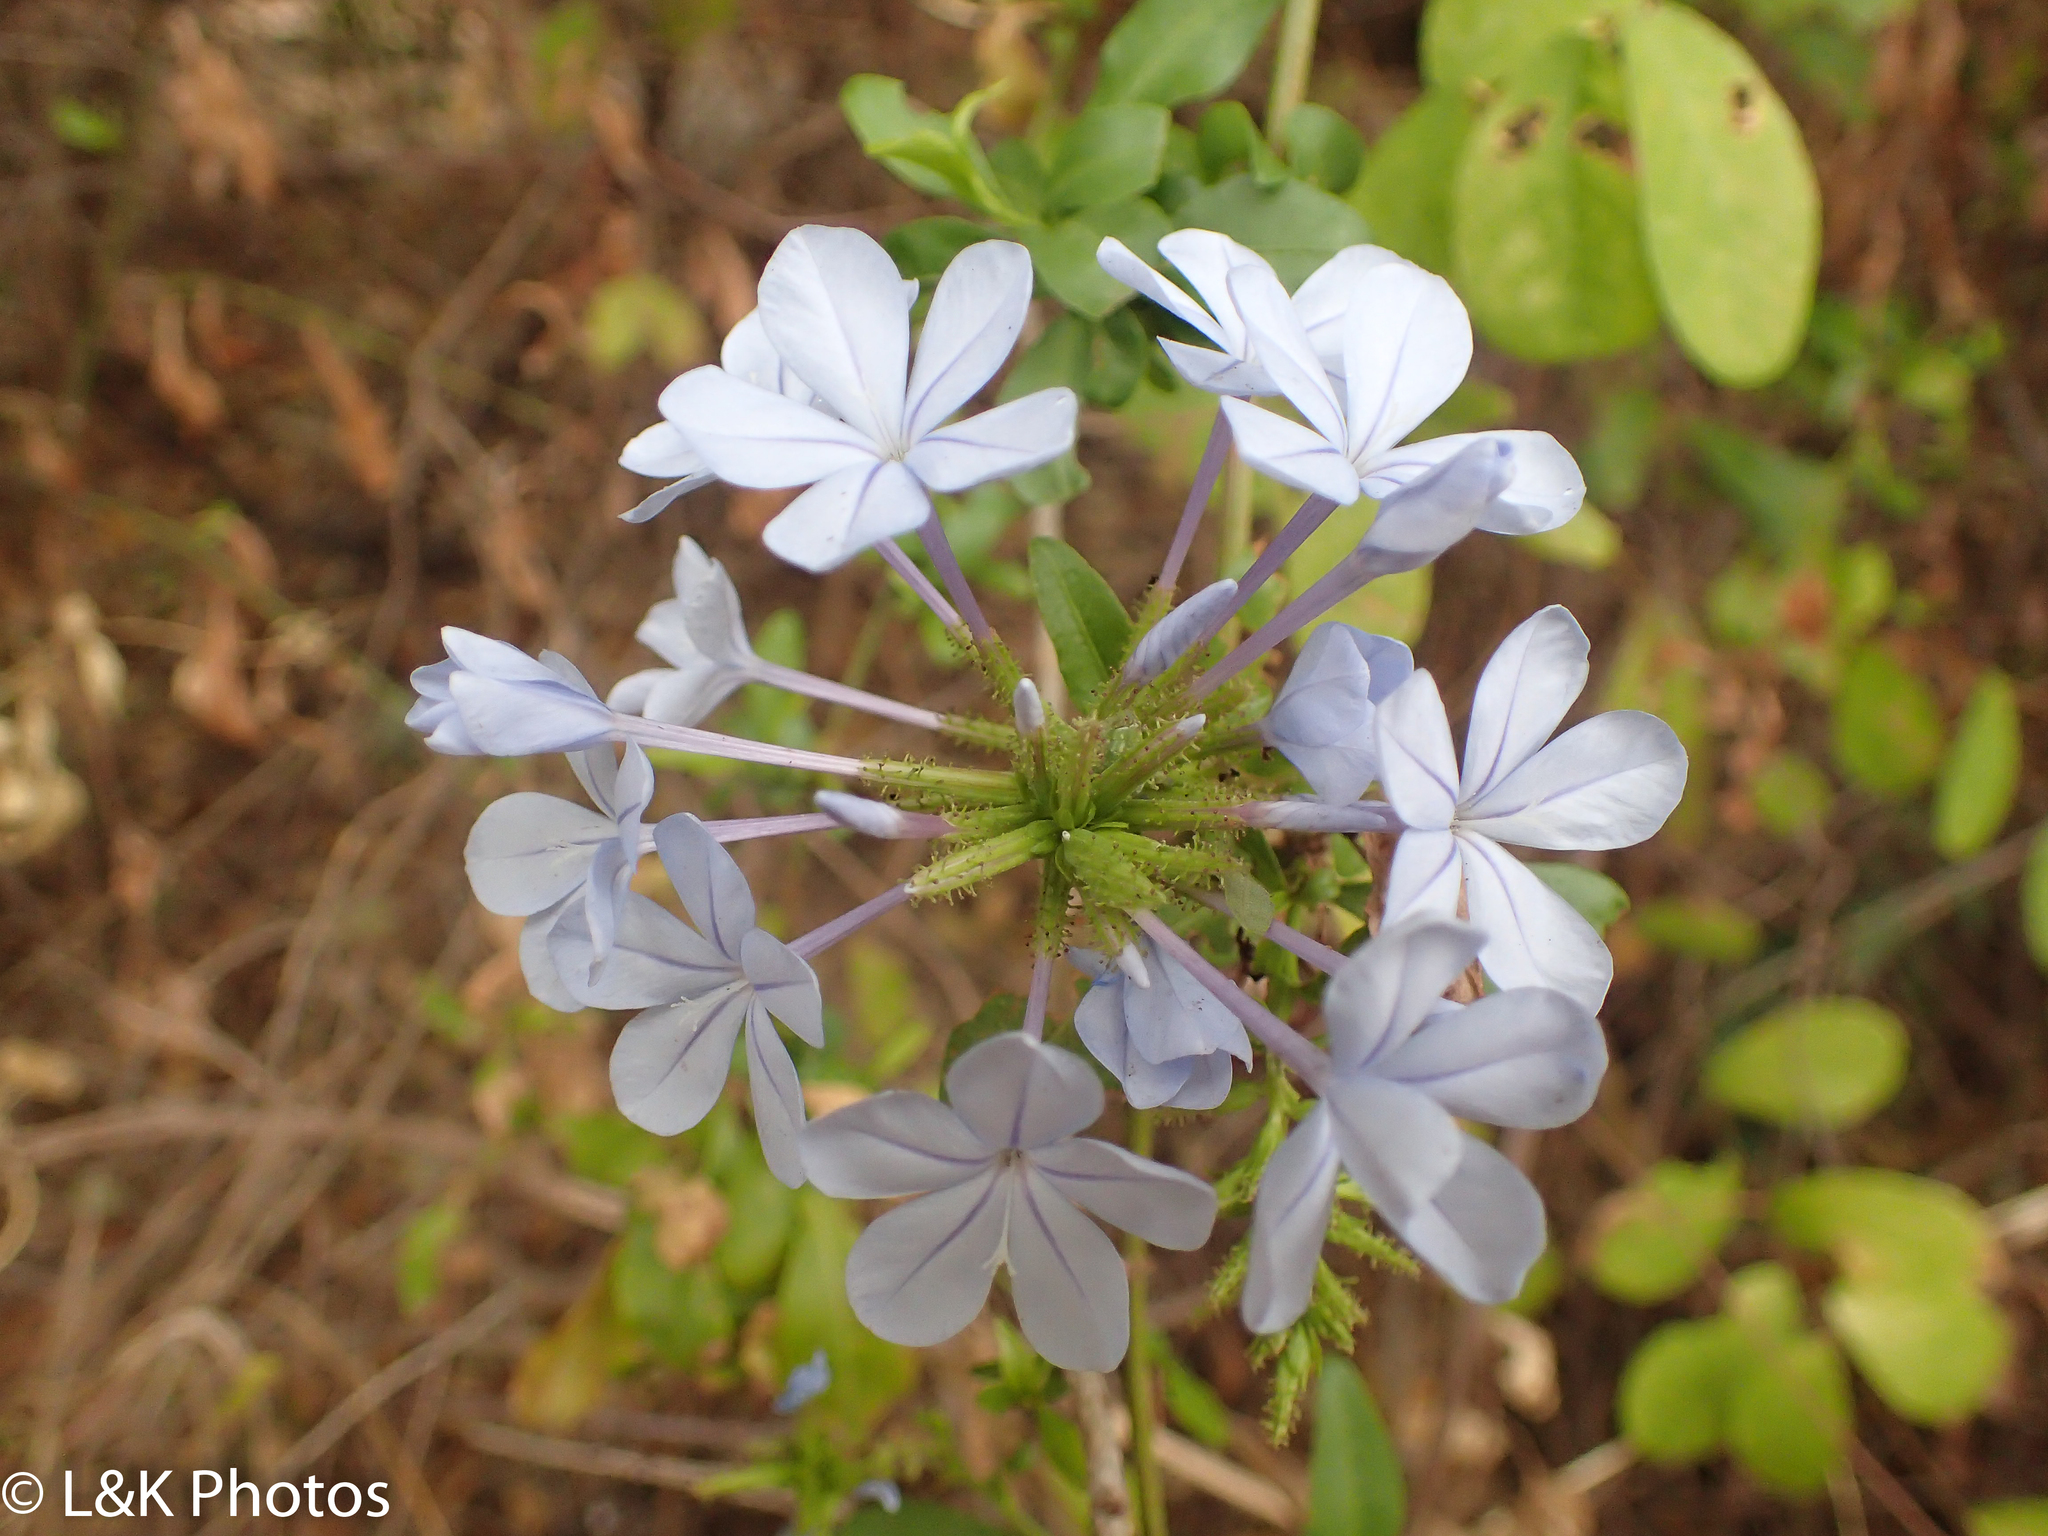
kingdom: Plantae
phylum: Tracheophyta
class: Magnoliopsida
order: Caryophyllales
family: Plumbaginaceae
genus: Plumbago
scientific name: Plumbago auriculata
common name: Cape leadwort
